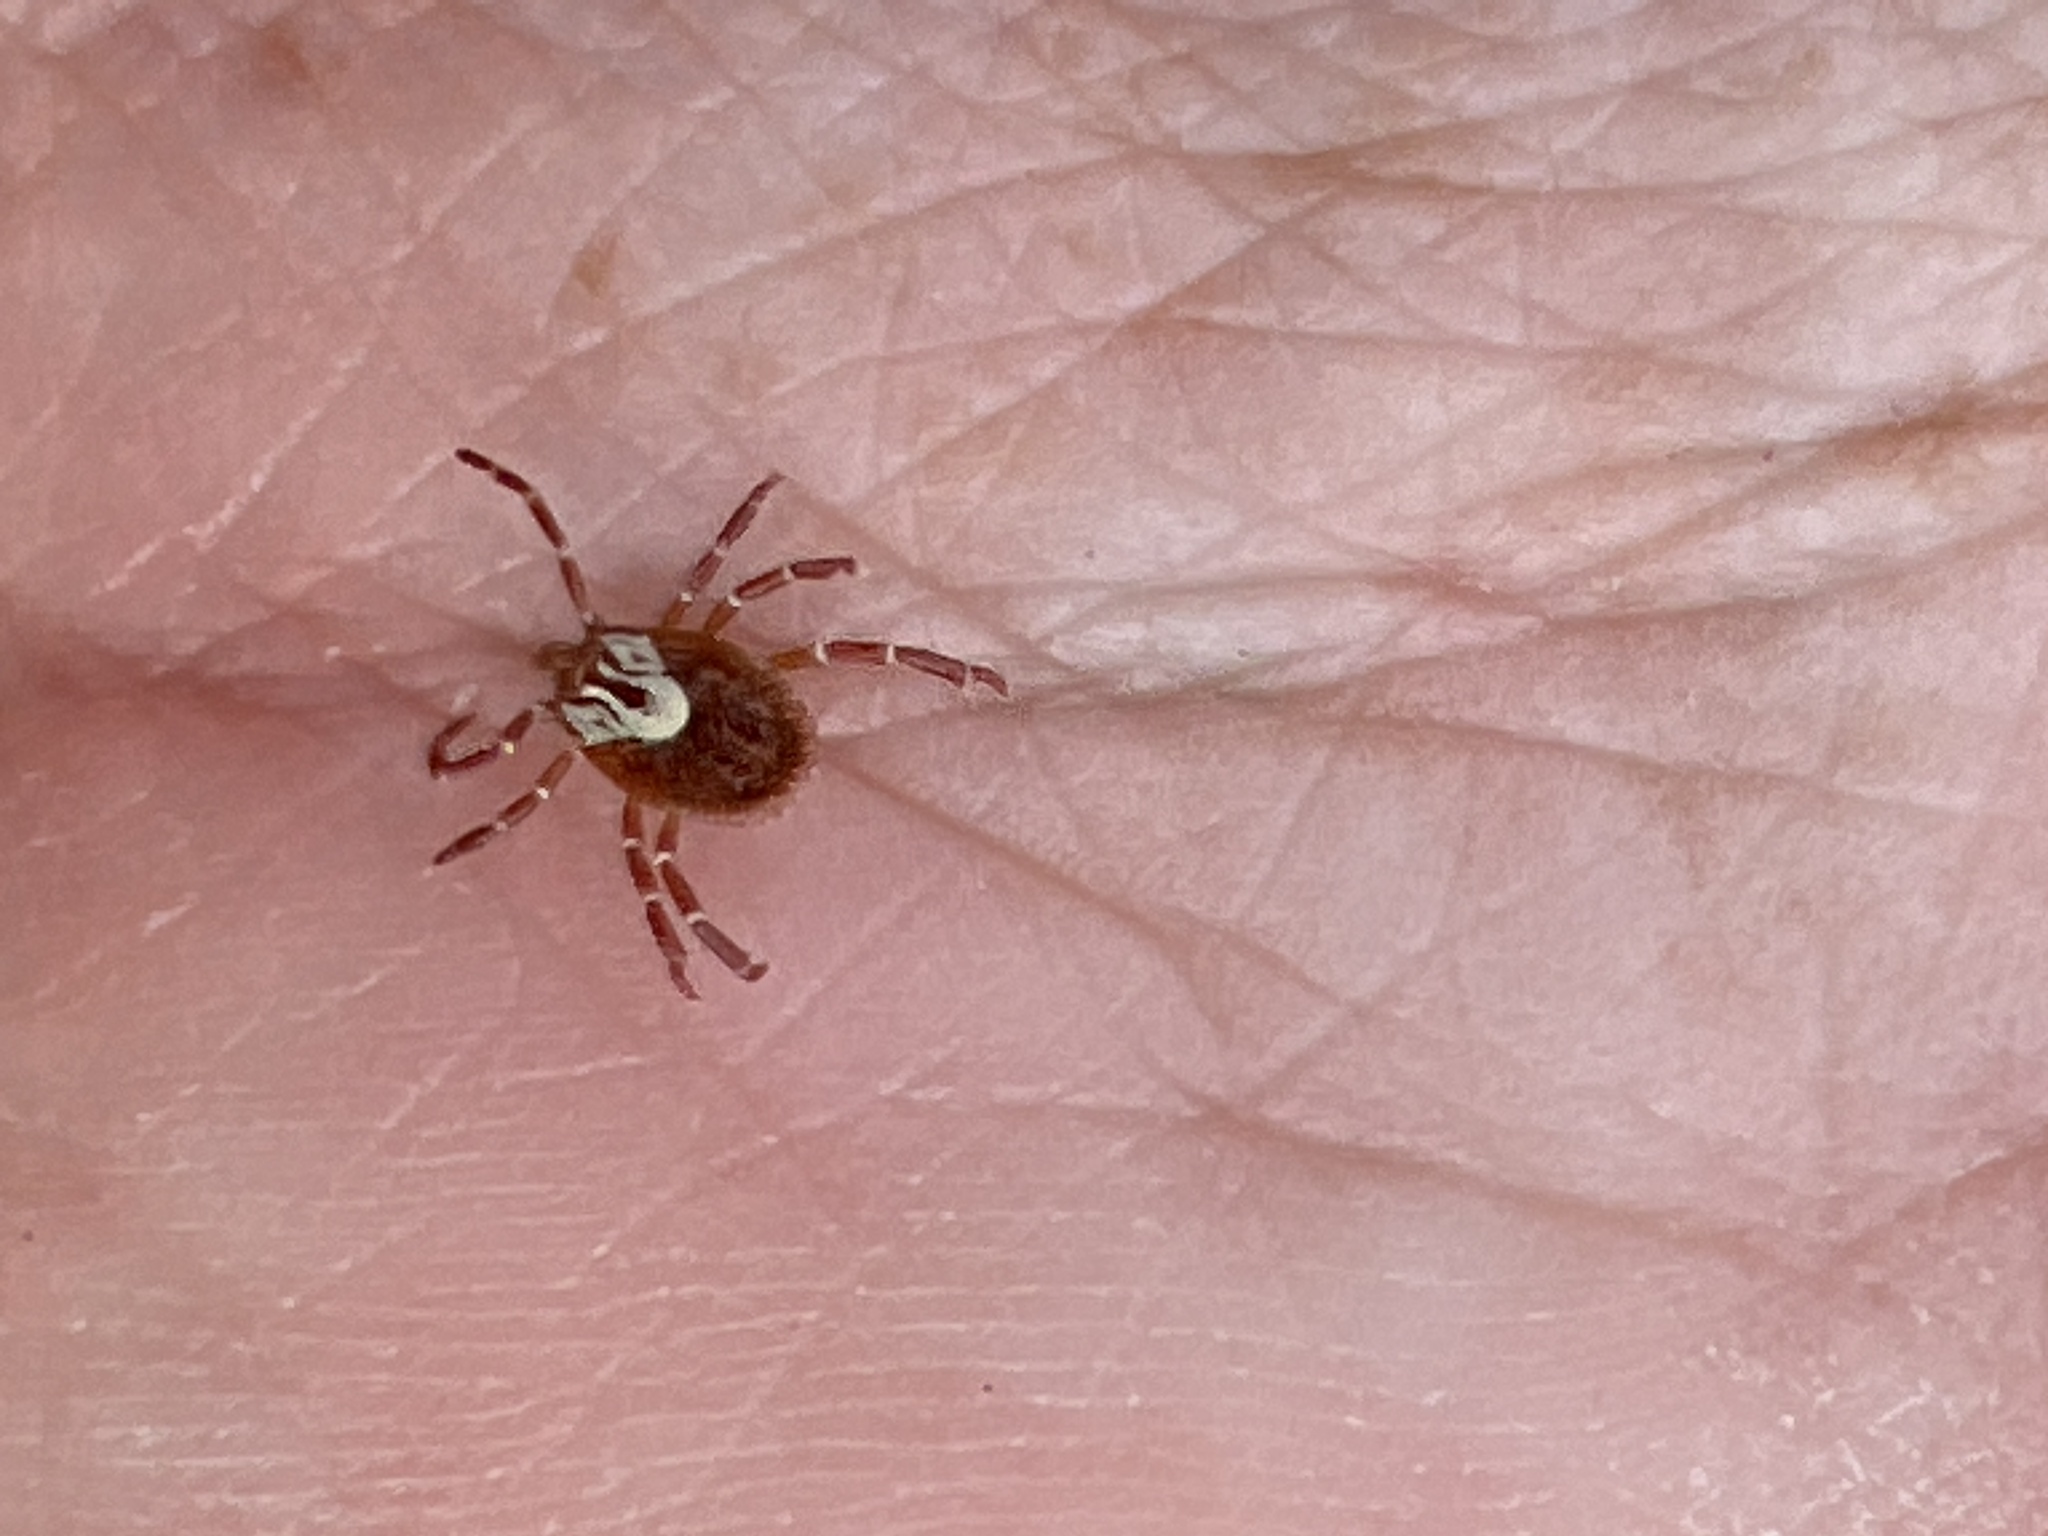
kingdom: Animalia
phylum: Arthropoda
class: Arachnida
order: Ixodida
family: Ixodidae
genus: Amblyomma
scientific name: Amblyomma maculatum
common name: Gulf coast tick
